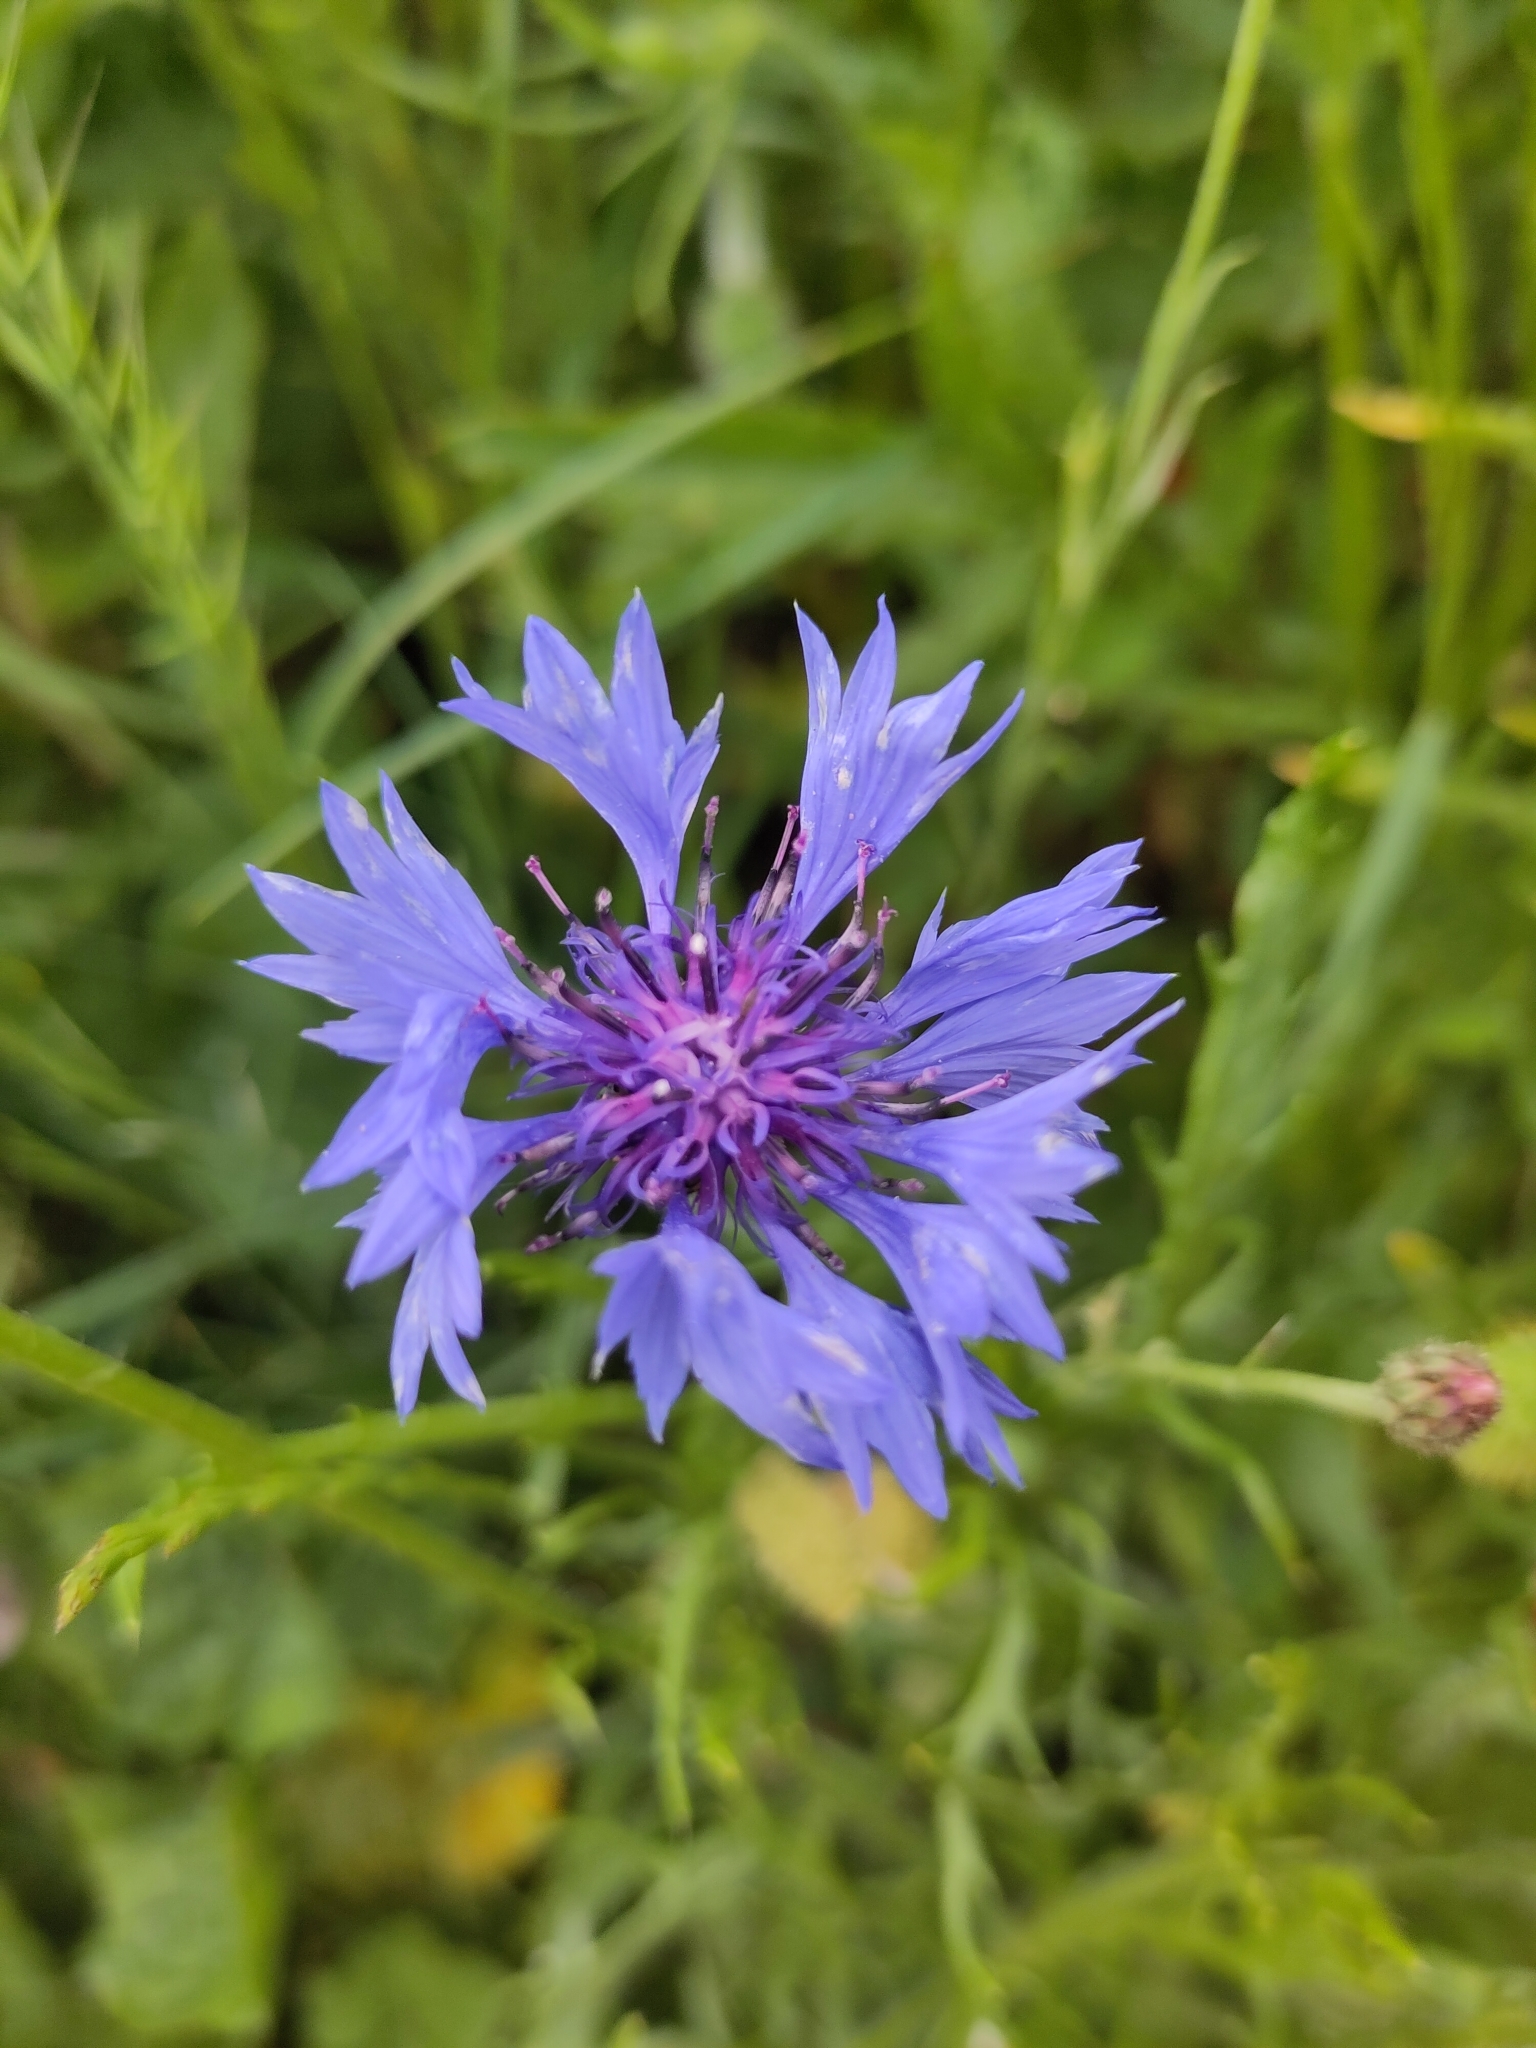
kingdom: Plantae
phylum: Tracheophyta
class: Magnoliopsida
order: Asterales
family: Asteraceae
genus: Centaurea
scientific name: Centaurea cyanus
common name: Cornflower
